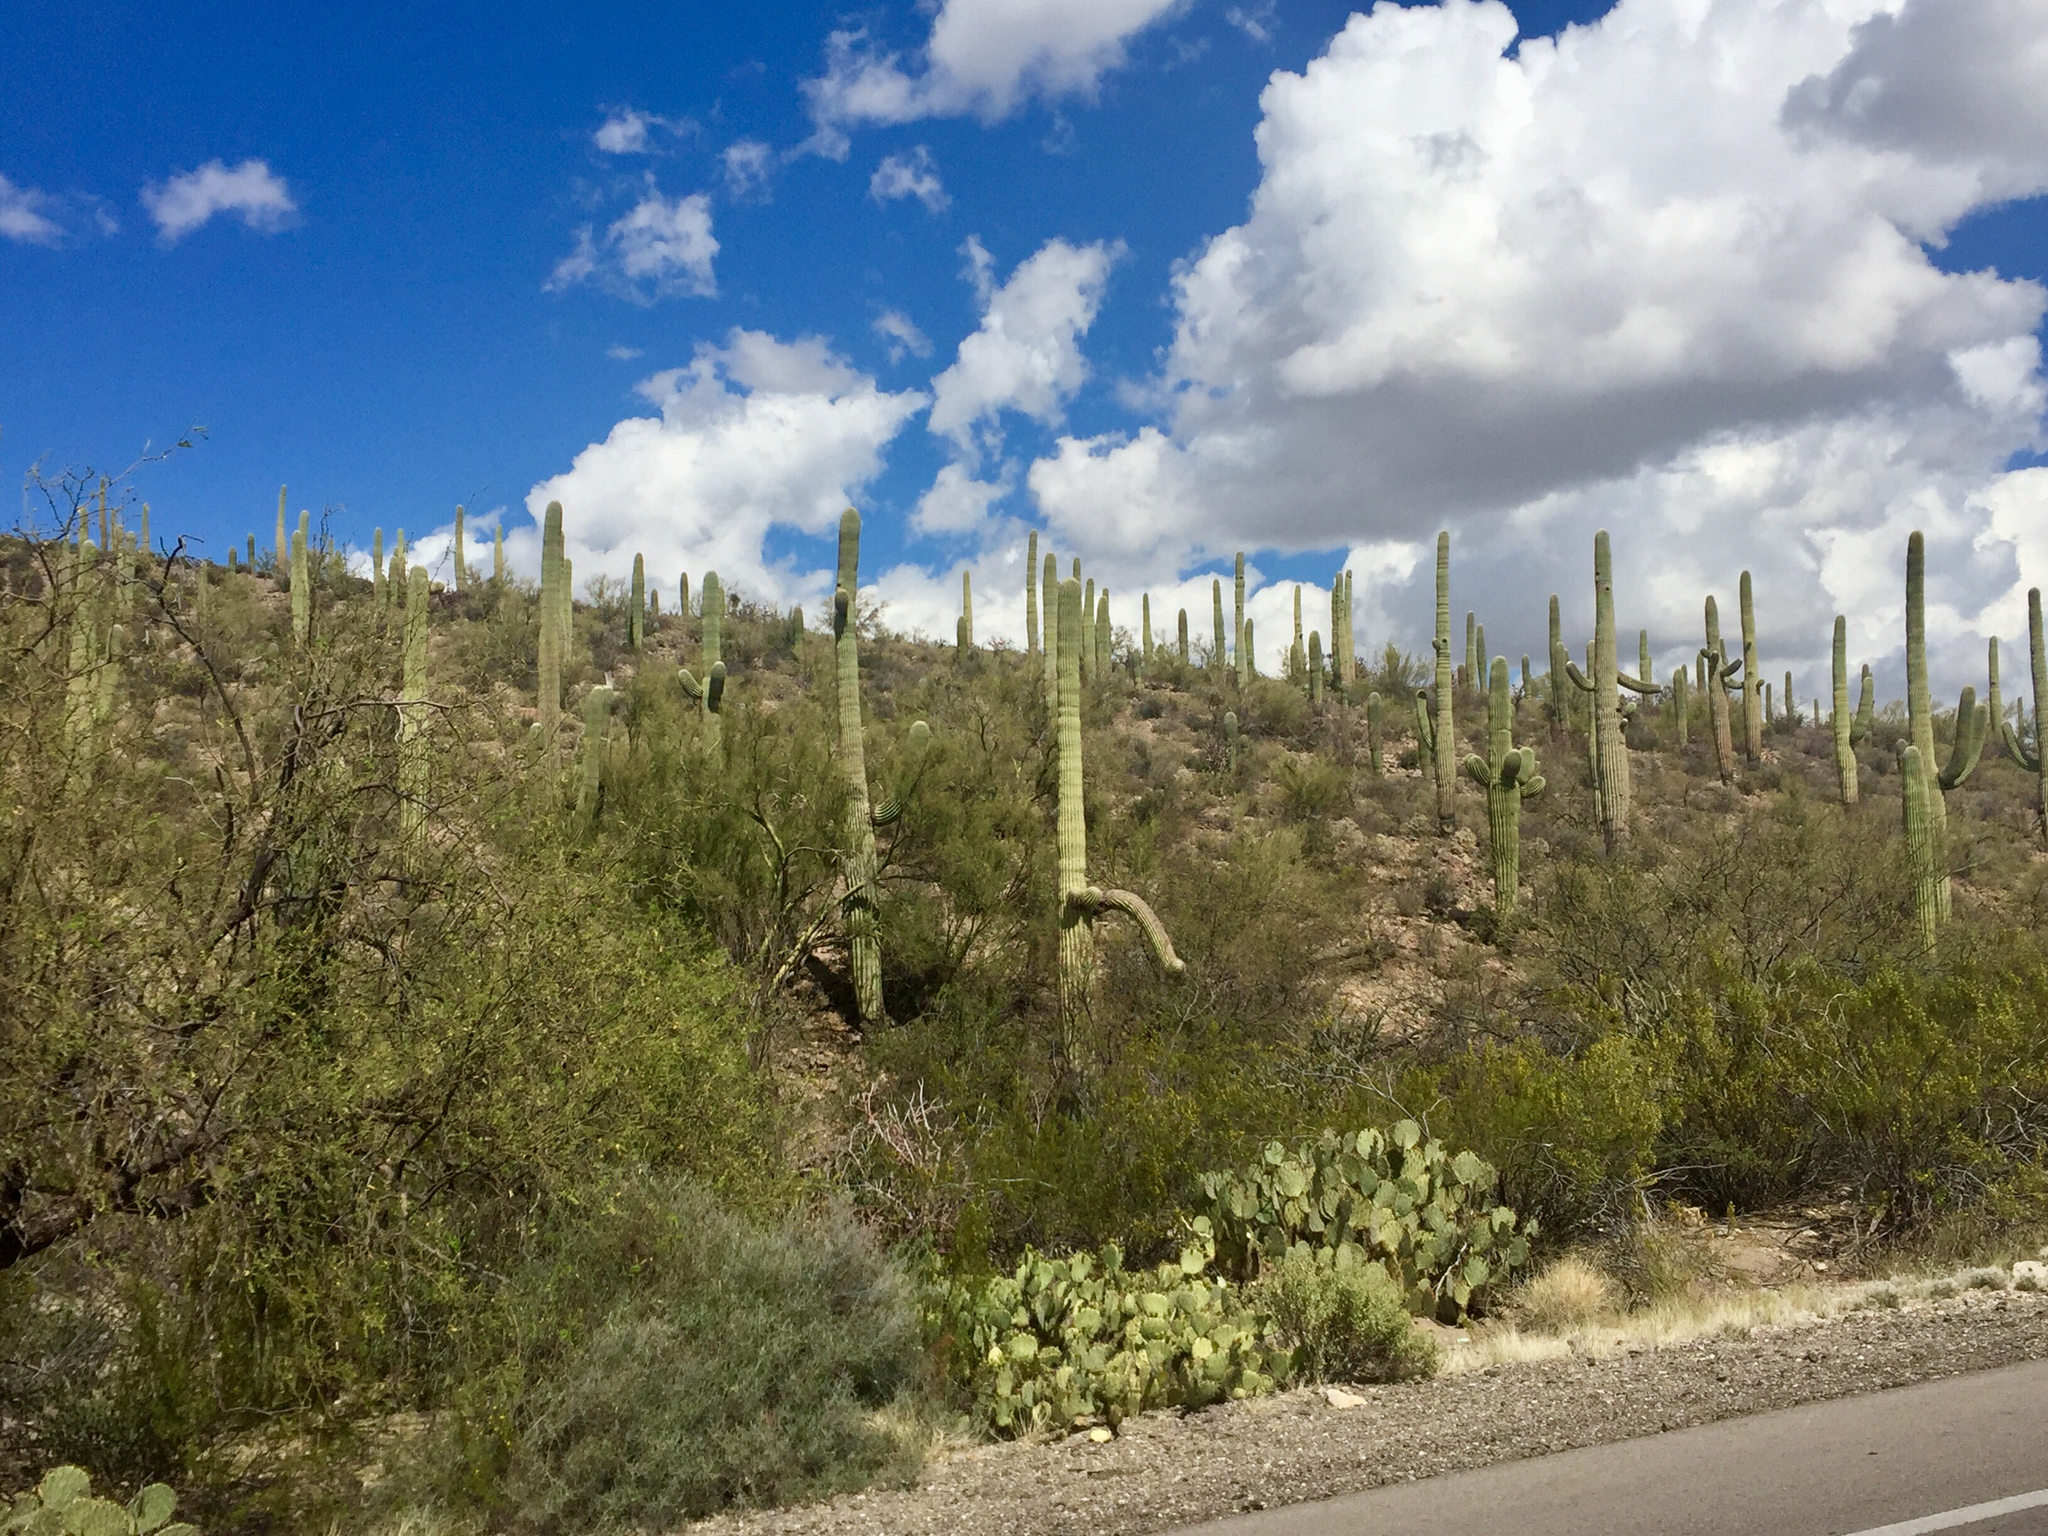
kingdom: Plantae
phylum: Tracheophyta
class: Magnoliopsida
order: Caryophyllales
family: Cactaceae
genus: Carnegiea
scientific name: Carnegiea gigantea
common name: Saguaro
